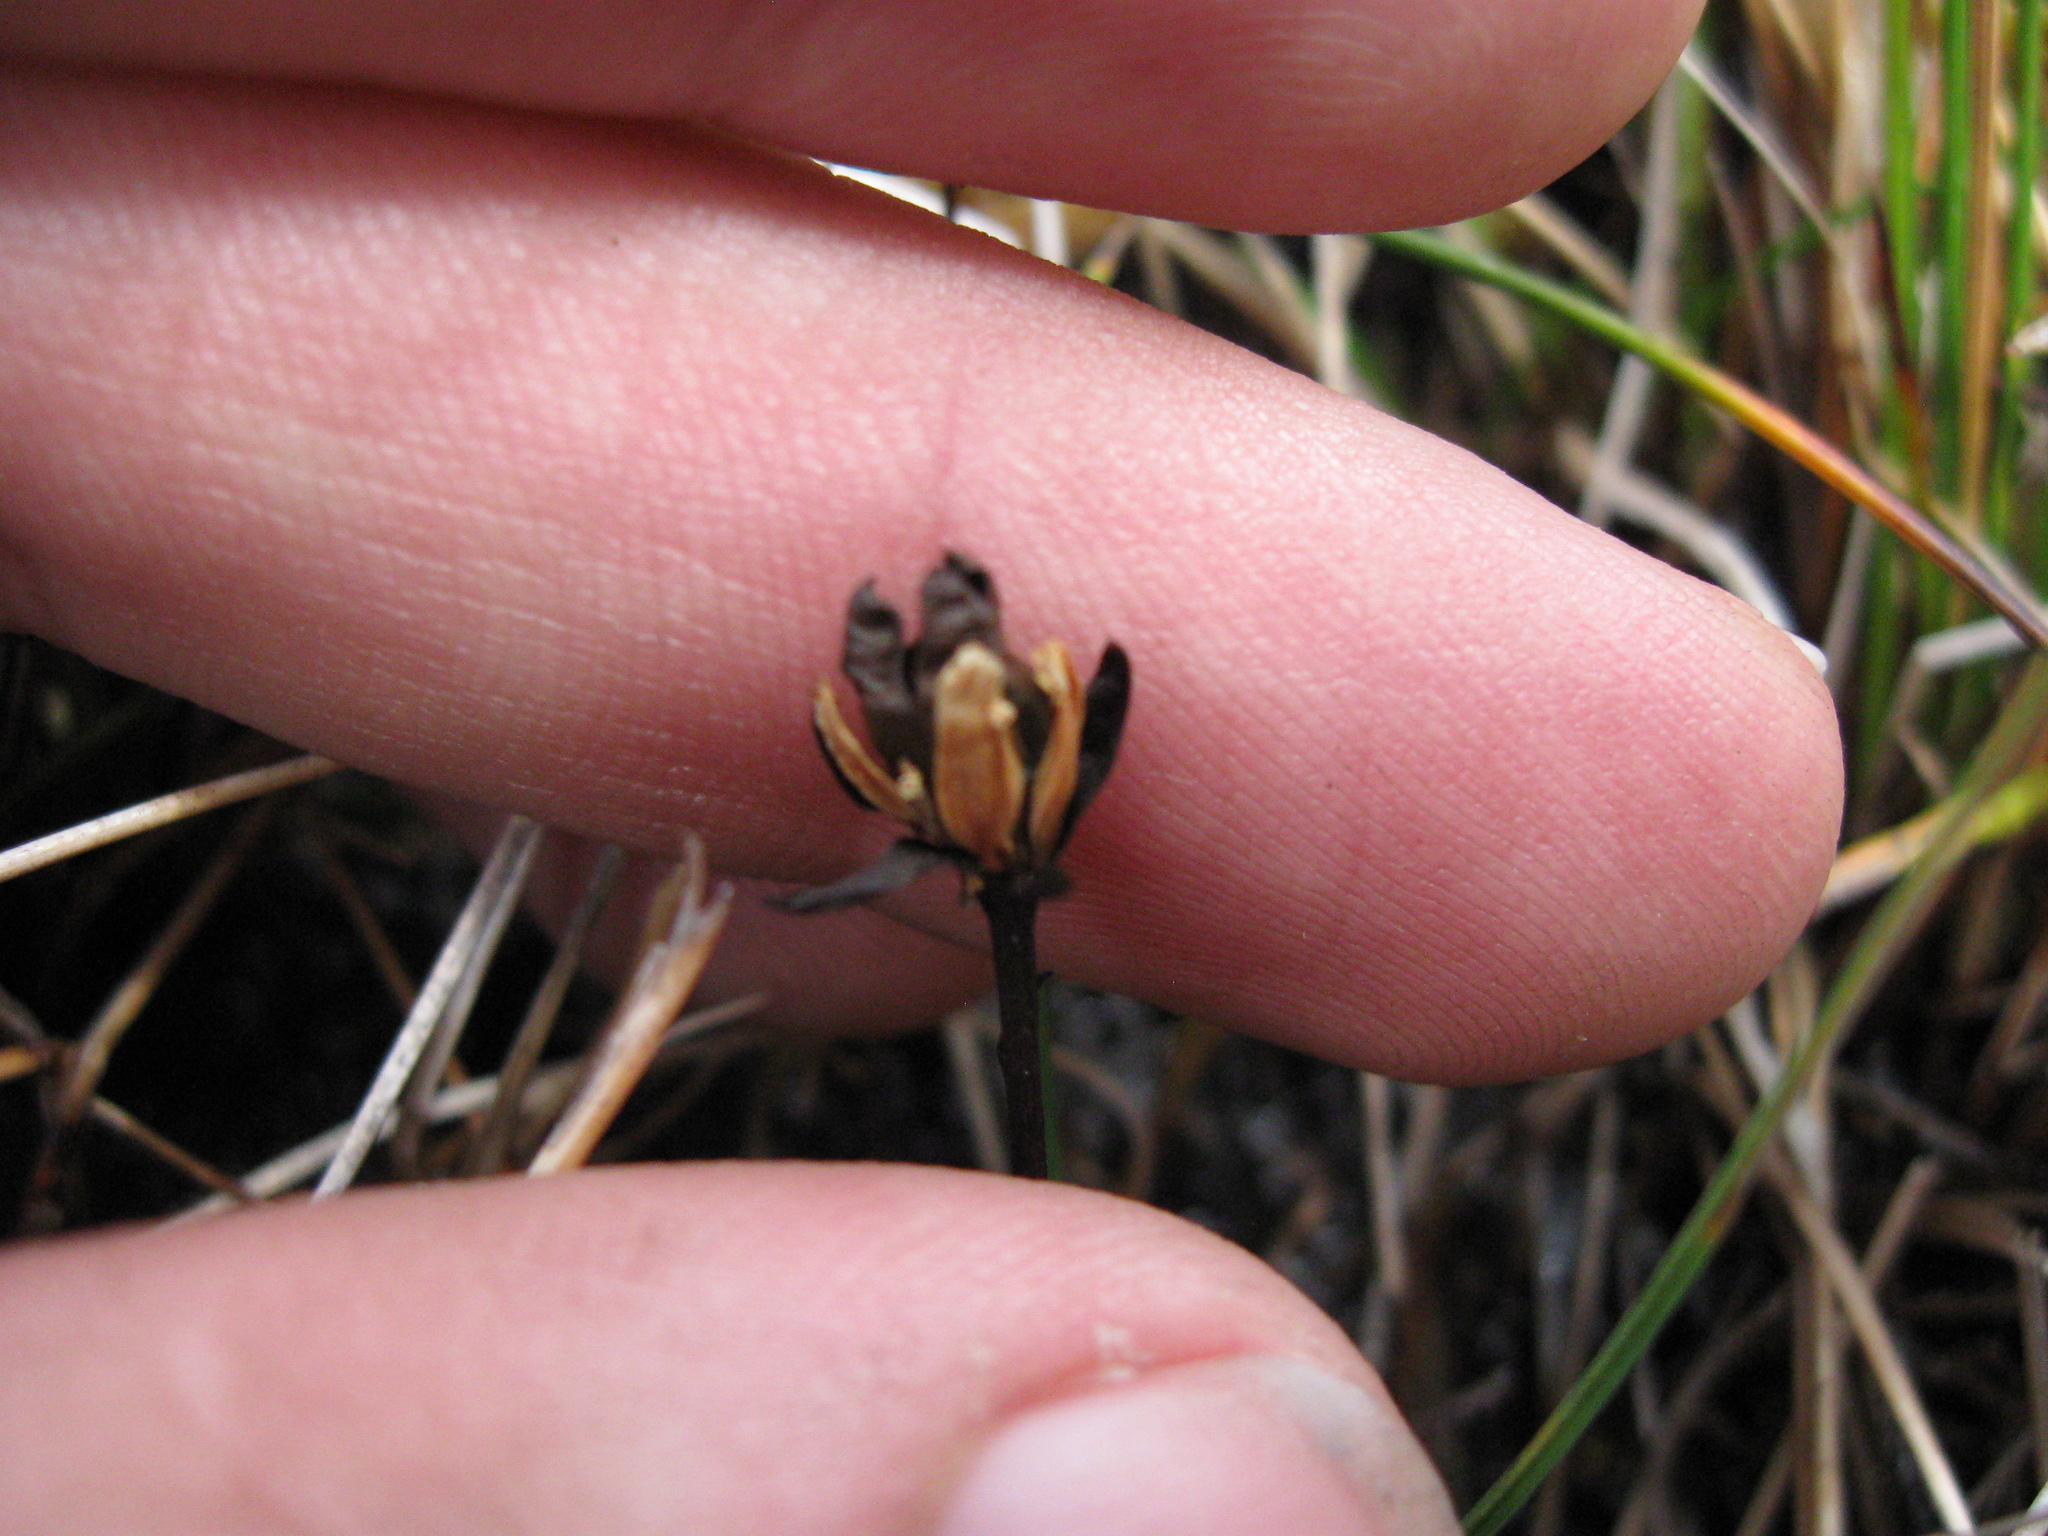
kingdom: Plantae
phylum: Tracheophyta
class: Magnoliopsida
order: Caryophyllales
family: Droseraceae
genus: Drosera
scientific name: Drosera arcturi
